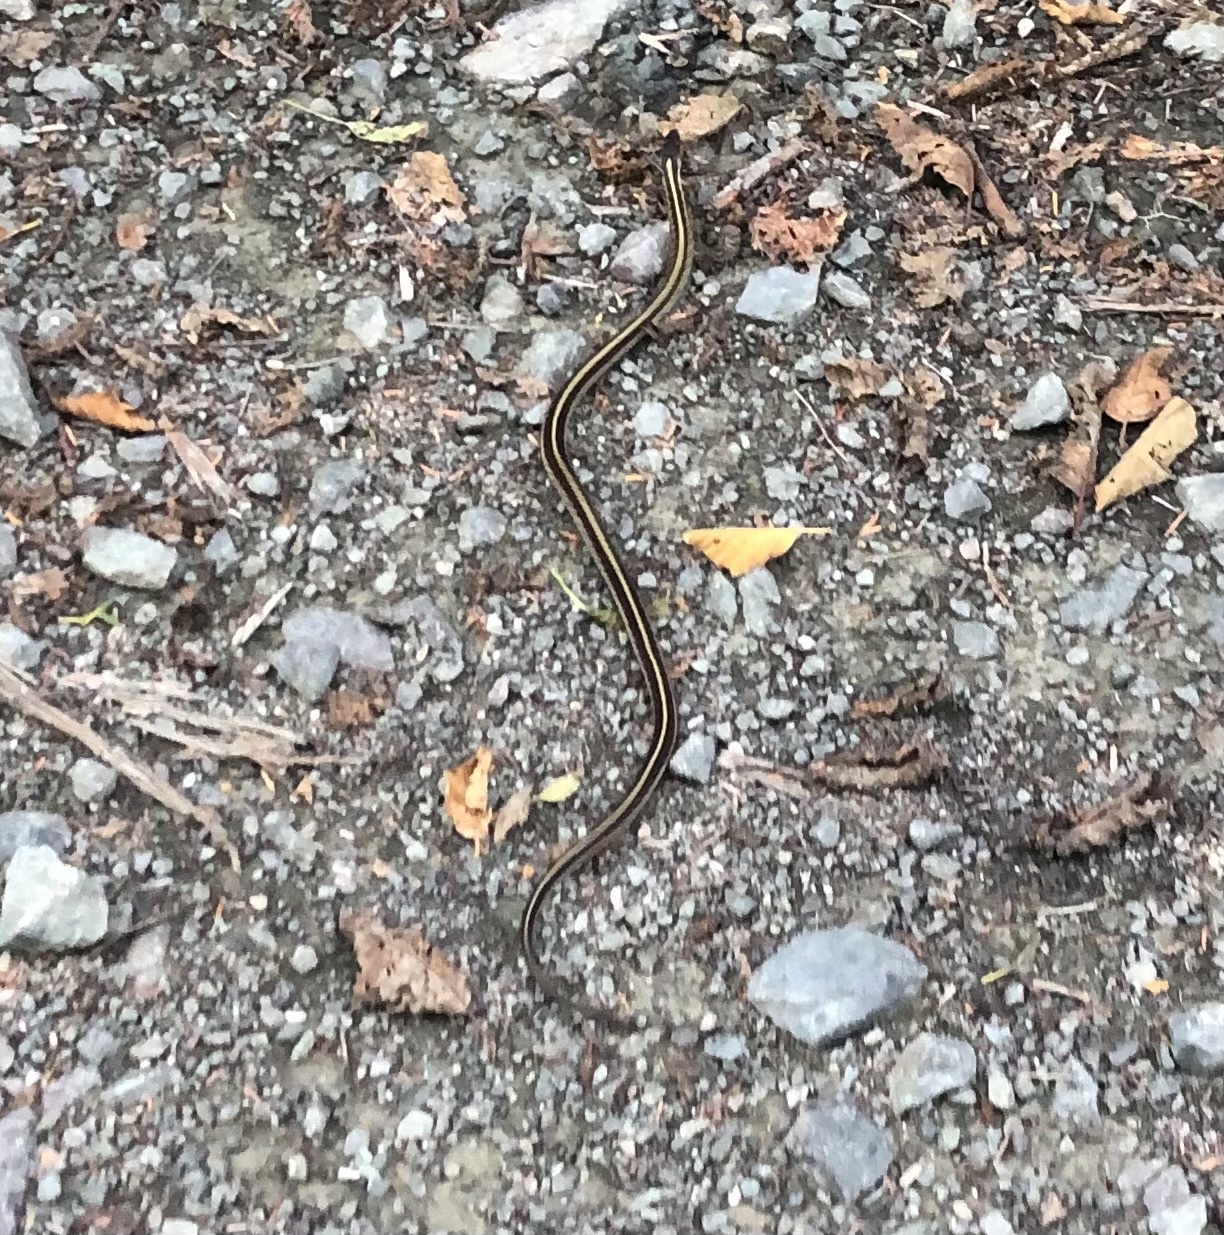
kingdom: Animalia
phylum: Chordata
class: Squamata
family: Colubridae
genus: Thamnophis
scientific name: Thamnophis sirtalis
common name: Common garter snake
